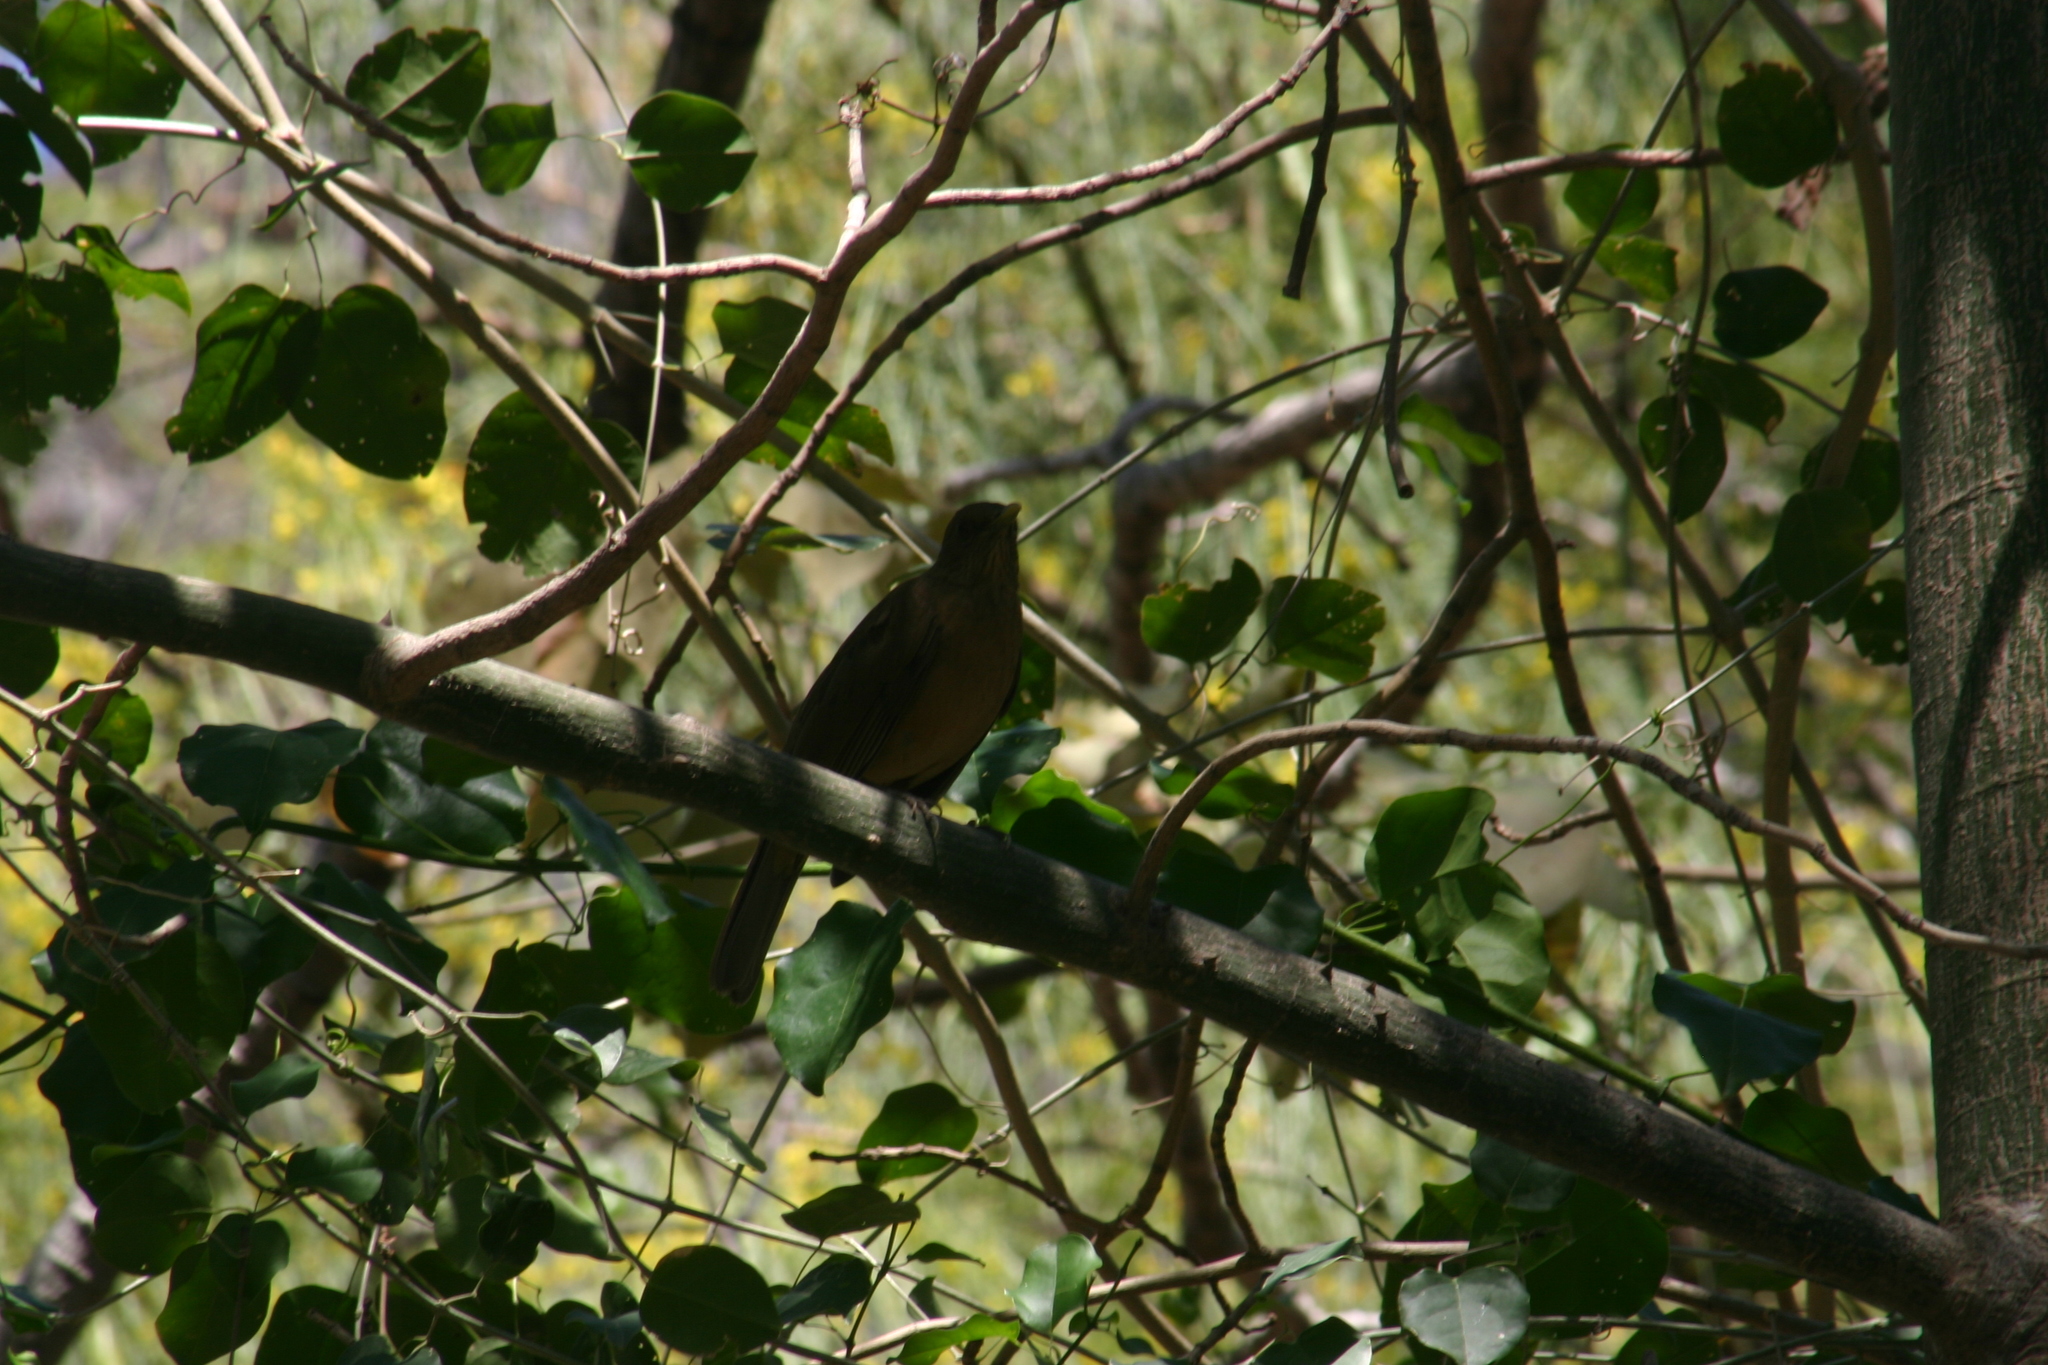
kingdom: Animalia
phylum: Chordata
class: Aves
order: Passeriformes
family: Turdidae
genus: Turdus
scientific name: Turdus grayi
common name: Clay-colored thrush
